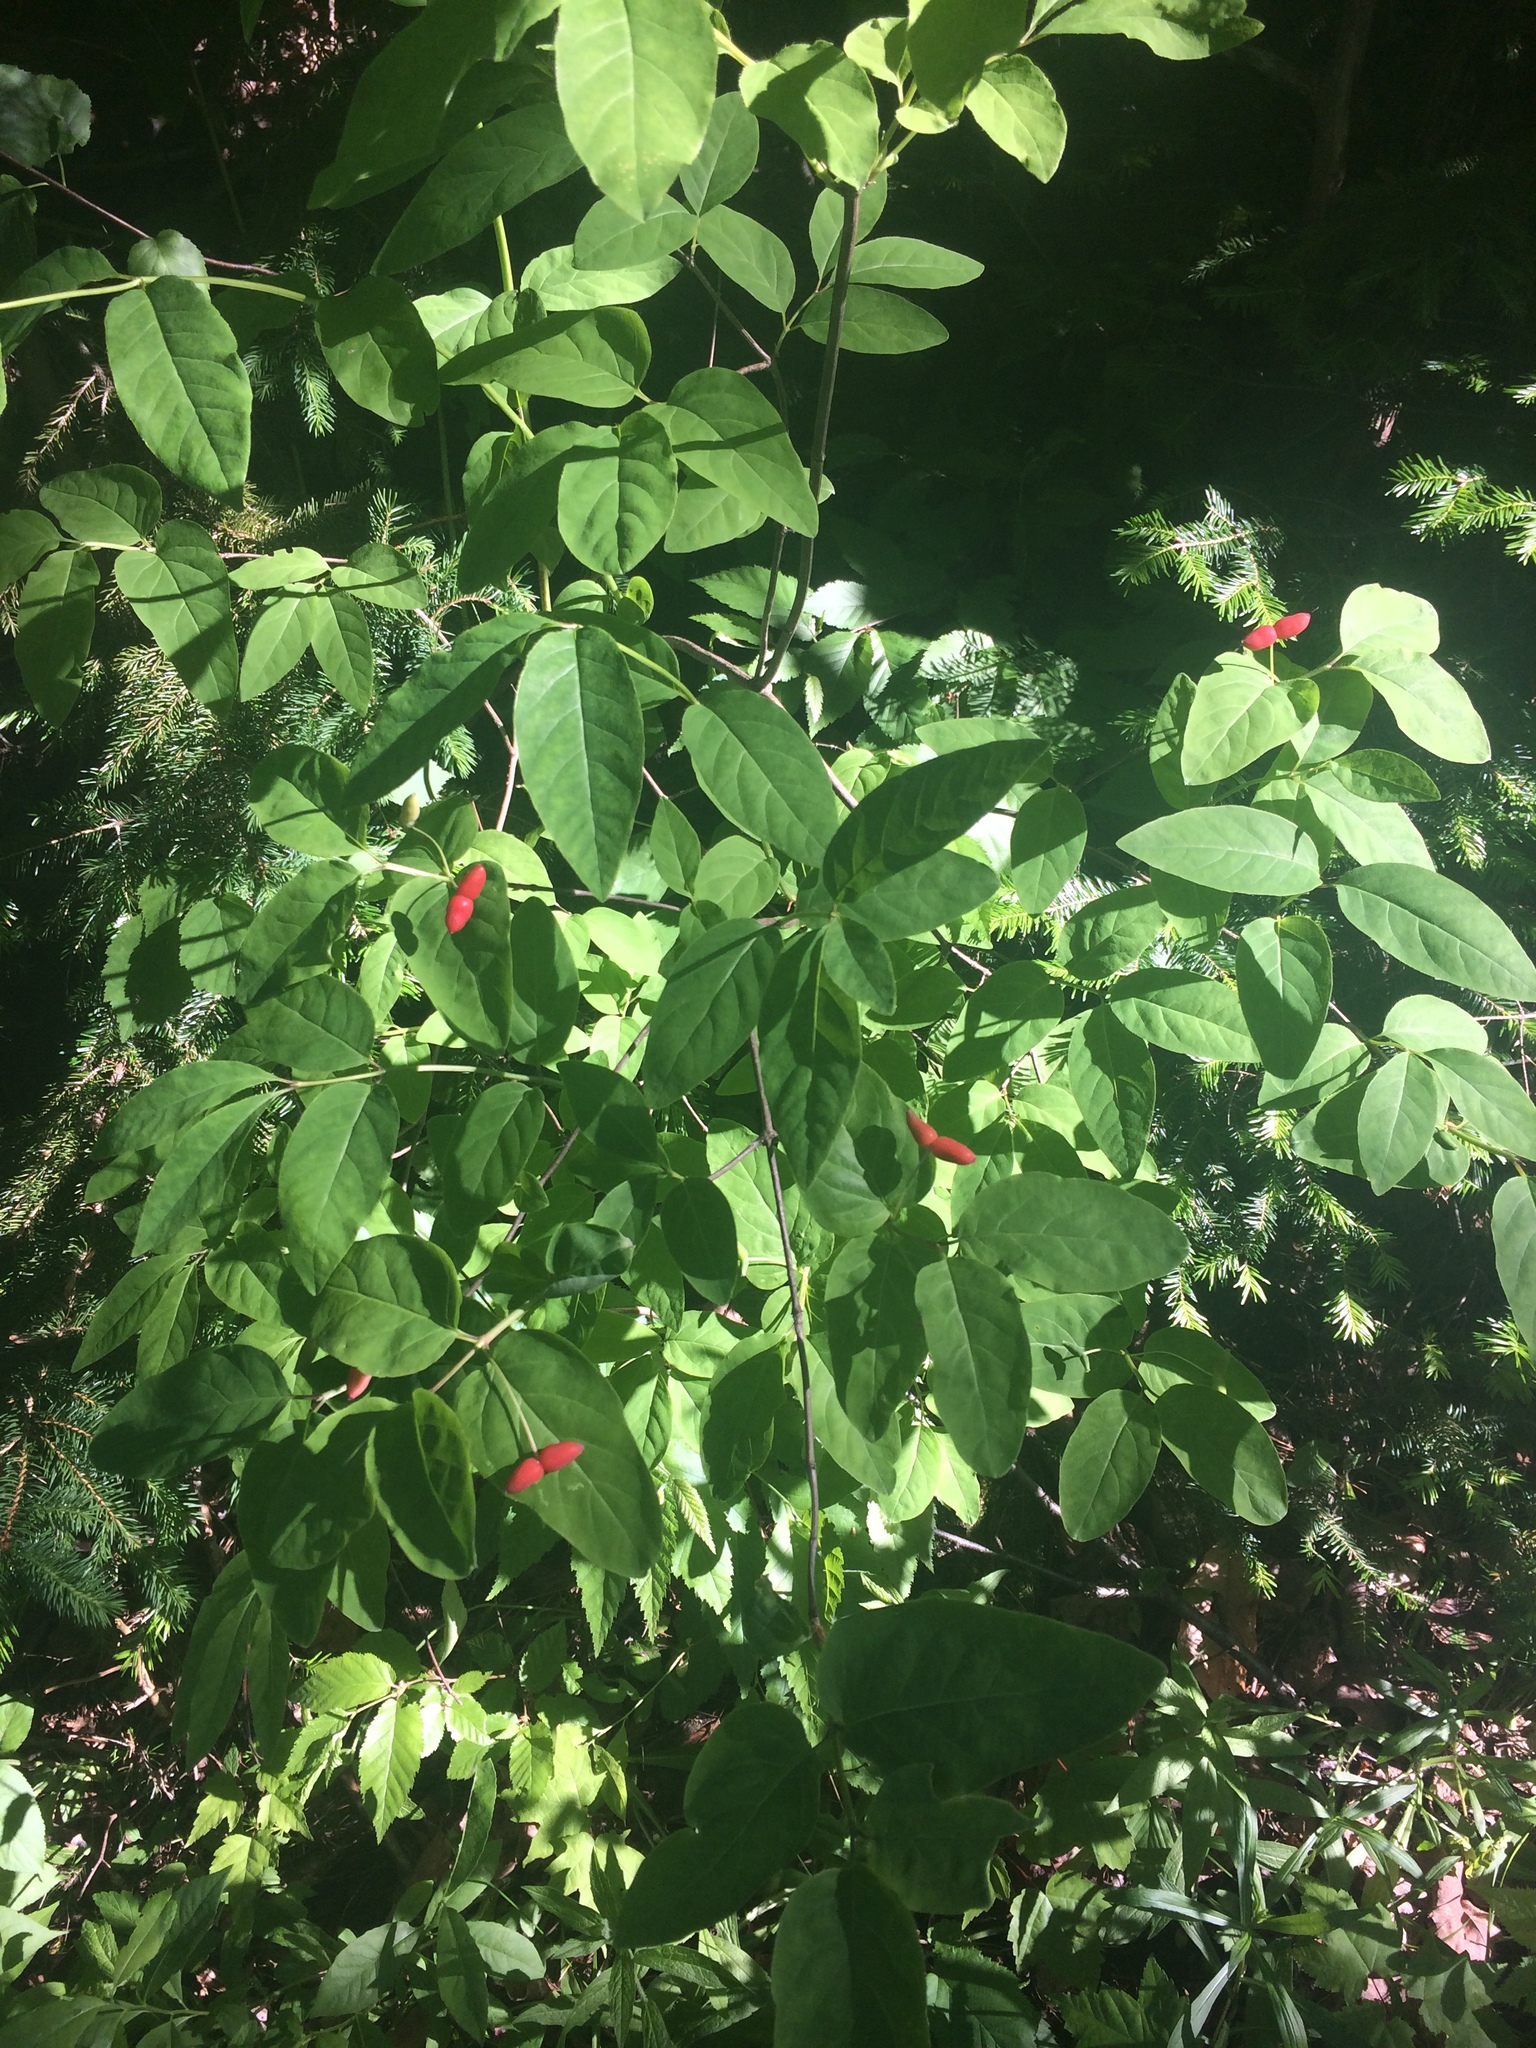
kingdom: Plantae
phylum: Tracheophyta
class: Magnoliopsida
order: Dipsacales
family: Caprifoliaceae
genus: Lonicera
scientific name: Lonicera canadensis
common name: American fly-honeysuckle
